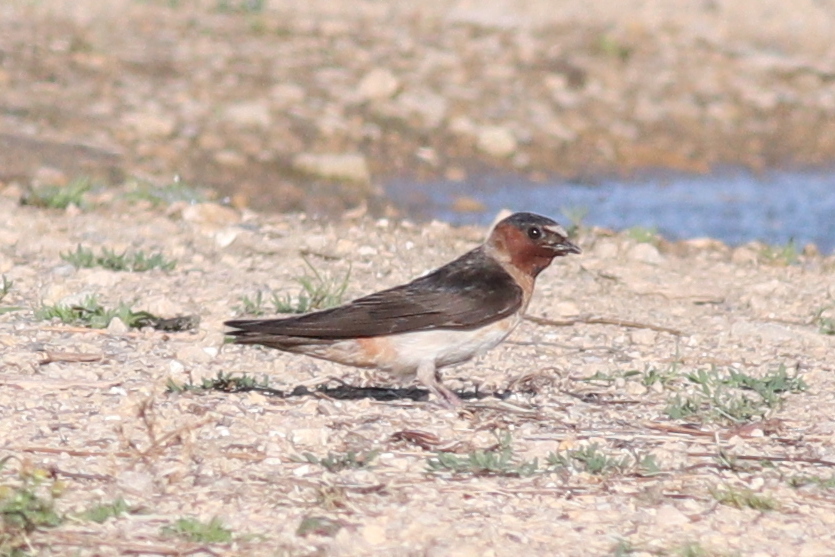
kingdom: Animalia
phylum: Chordata
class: Aves
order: Passeriformes
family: Hirundinidae
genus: Petrochelidon
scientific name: Petrochelidon pyrrhonota
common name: American cliff swallow
